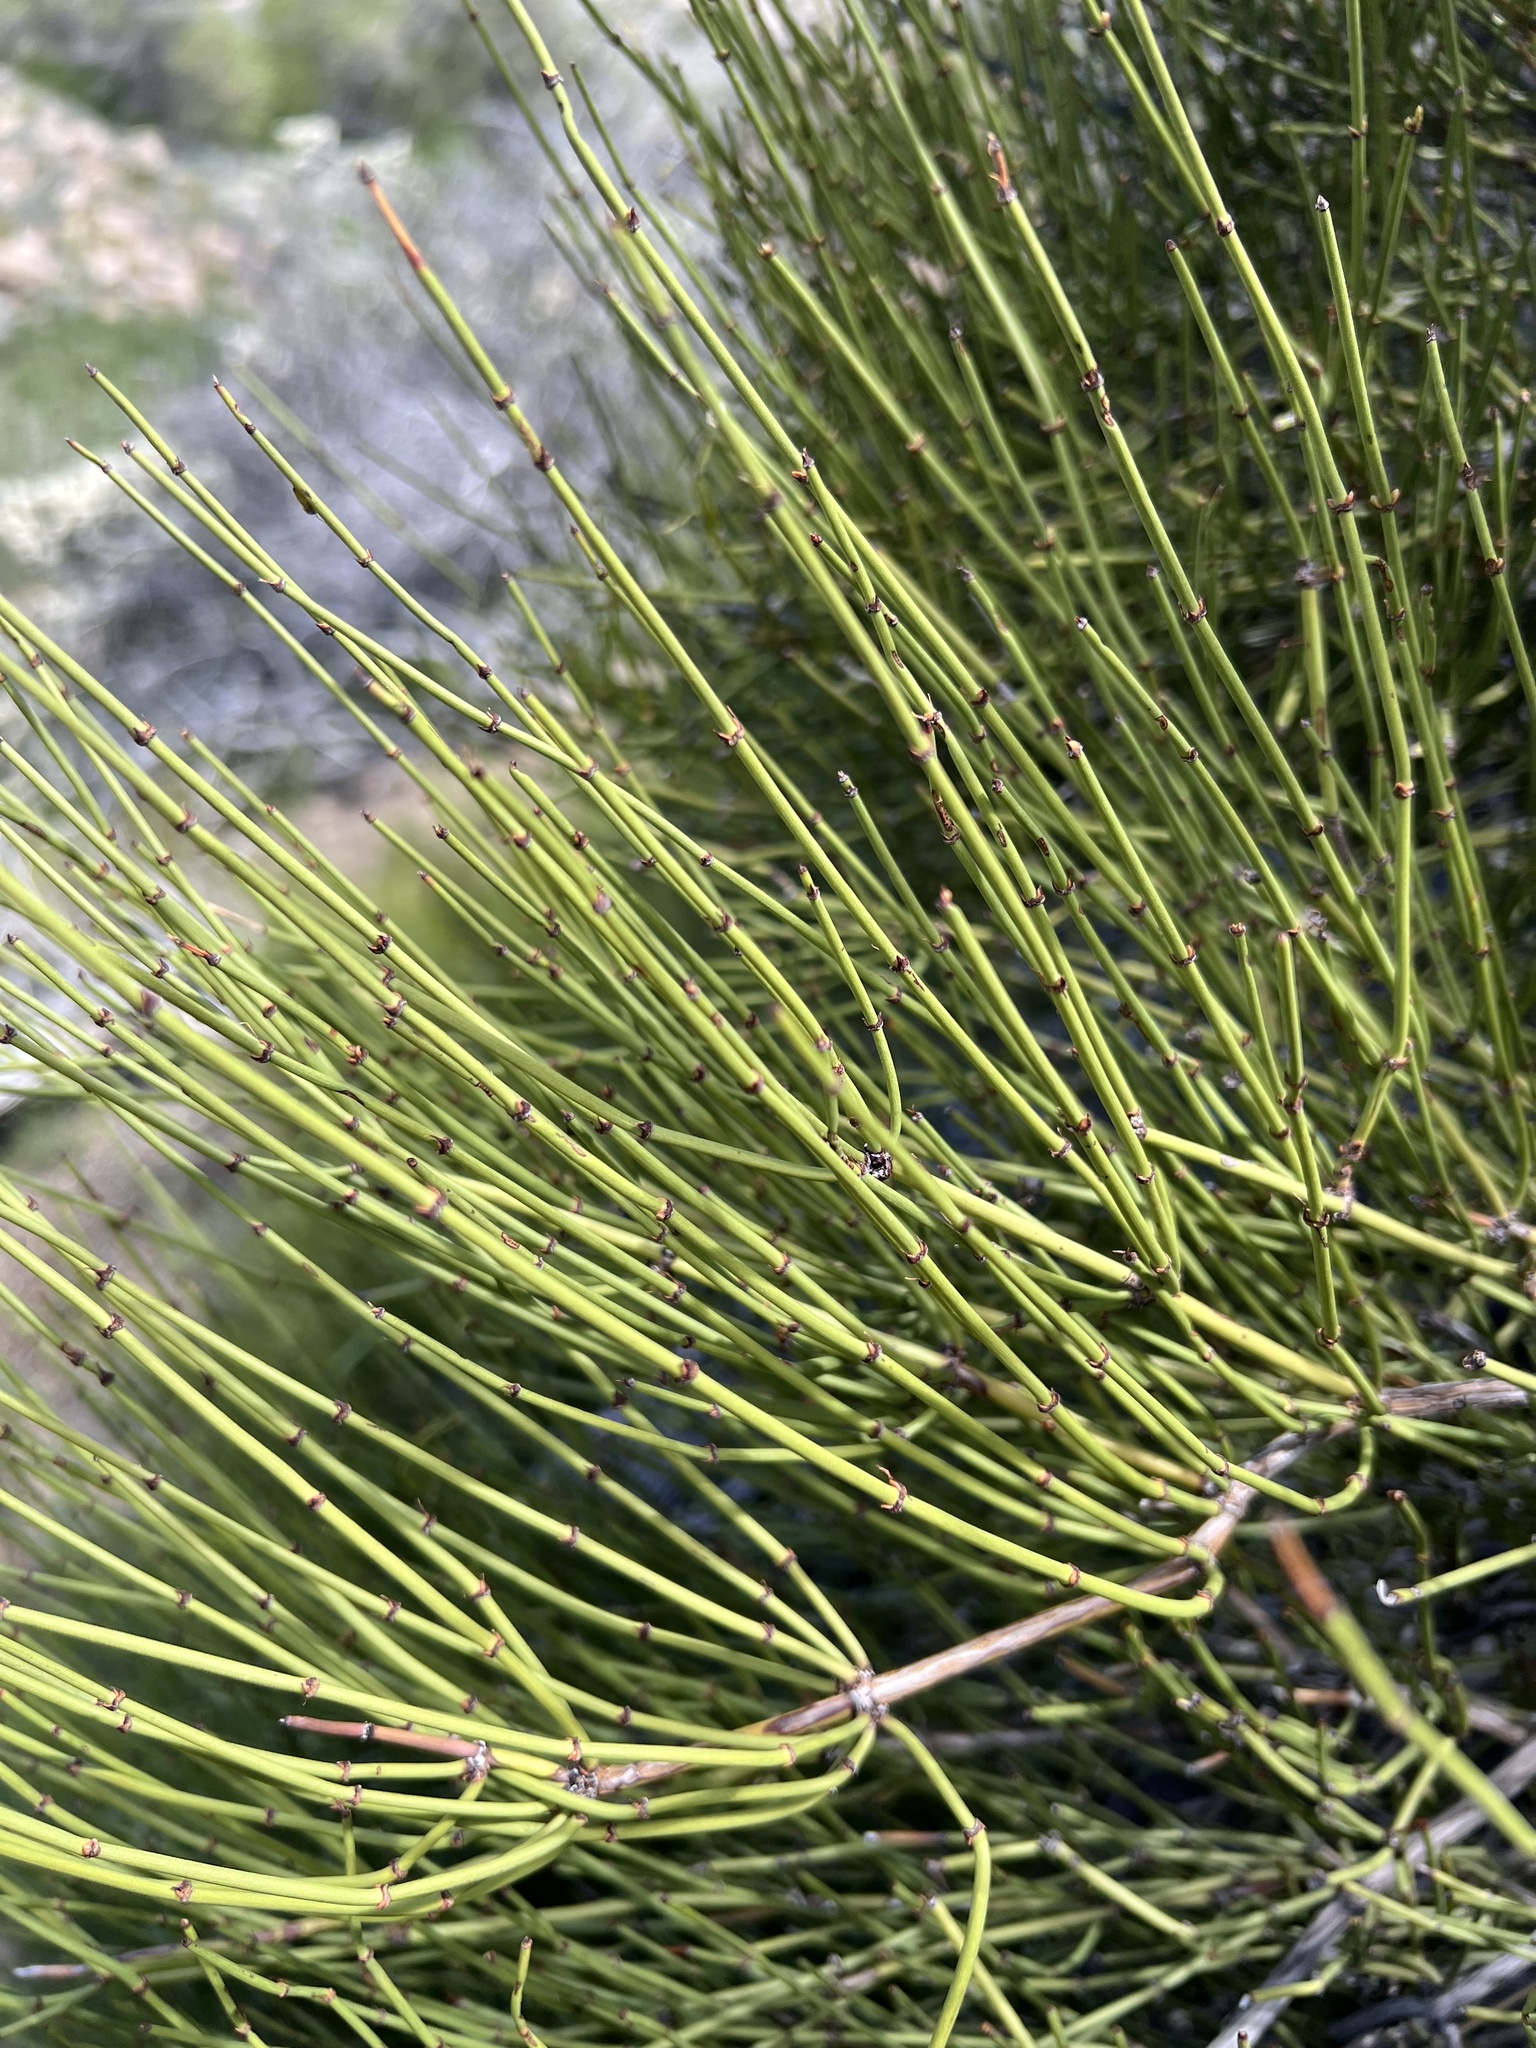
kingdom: Plantae
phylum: Tracheophyta
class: Gnetopsida
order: Ephedrales
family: Ephedraceae
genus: Ephedra
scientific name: Ephedra viridis
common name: Green ephedra
